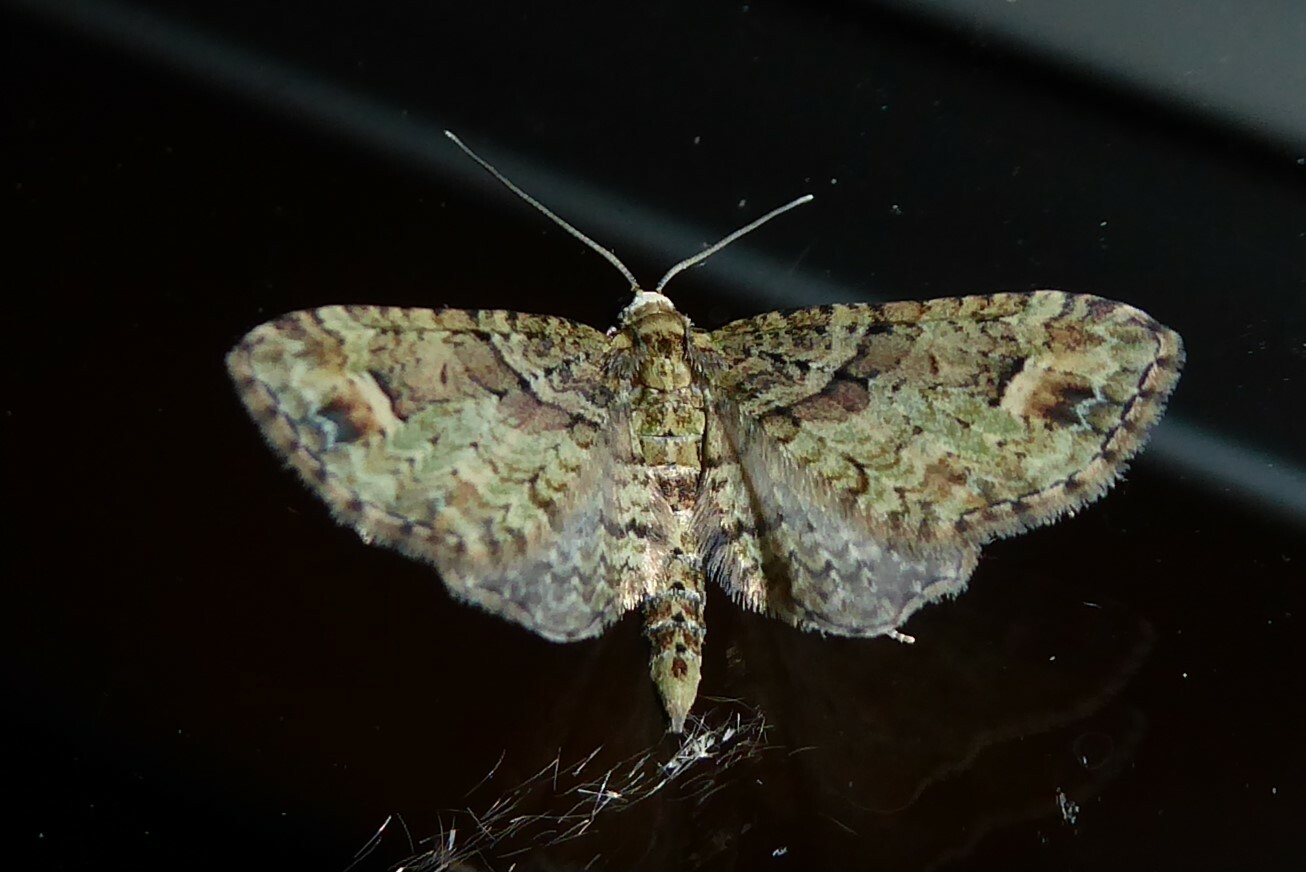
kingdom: Animalia
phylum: Arthropoda
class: Insecta
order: Lepidoptera
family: Geometridae
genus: Idaea
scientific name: Idaea mutanda
